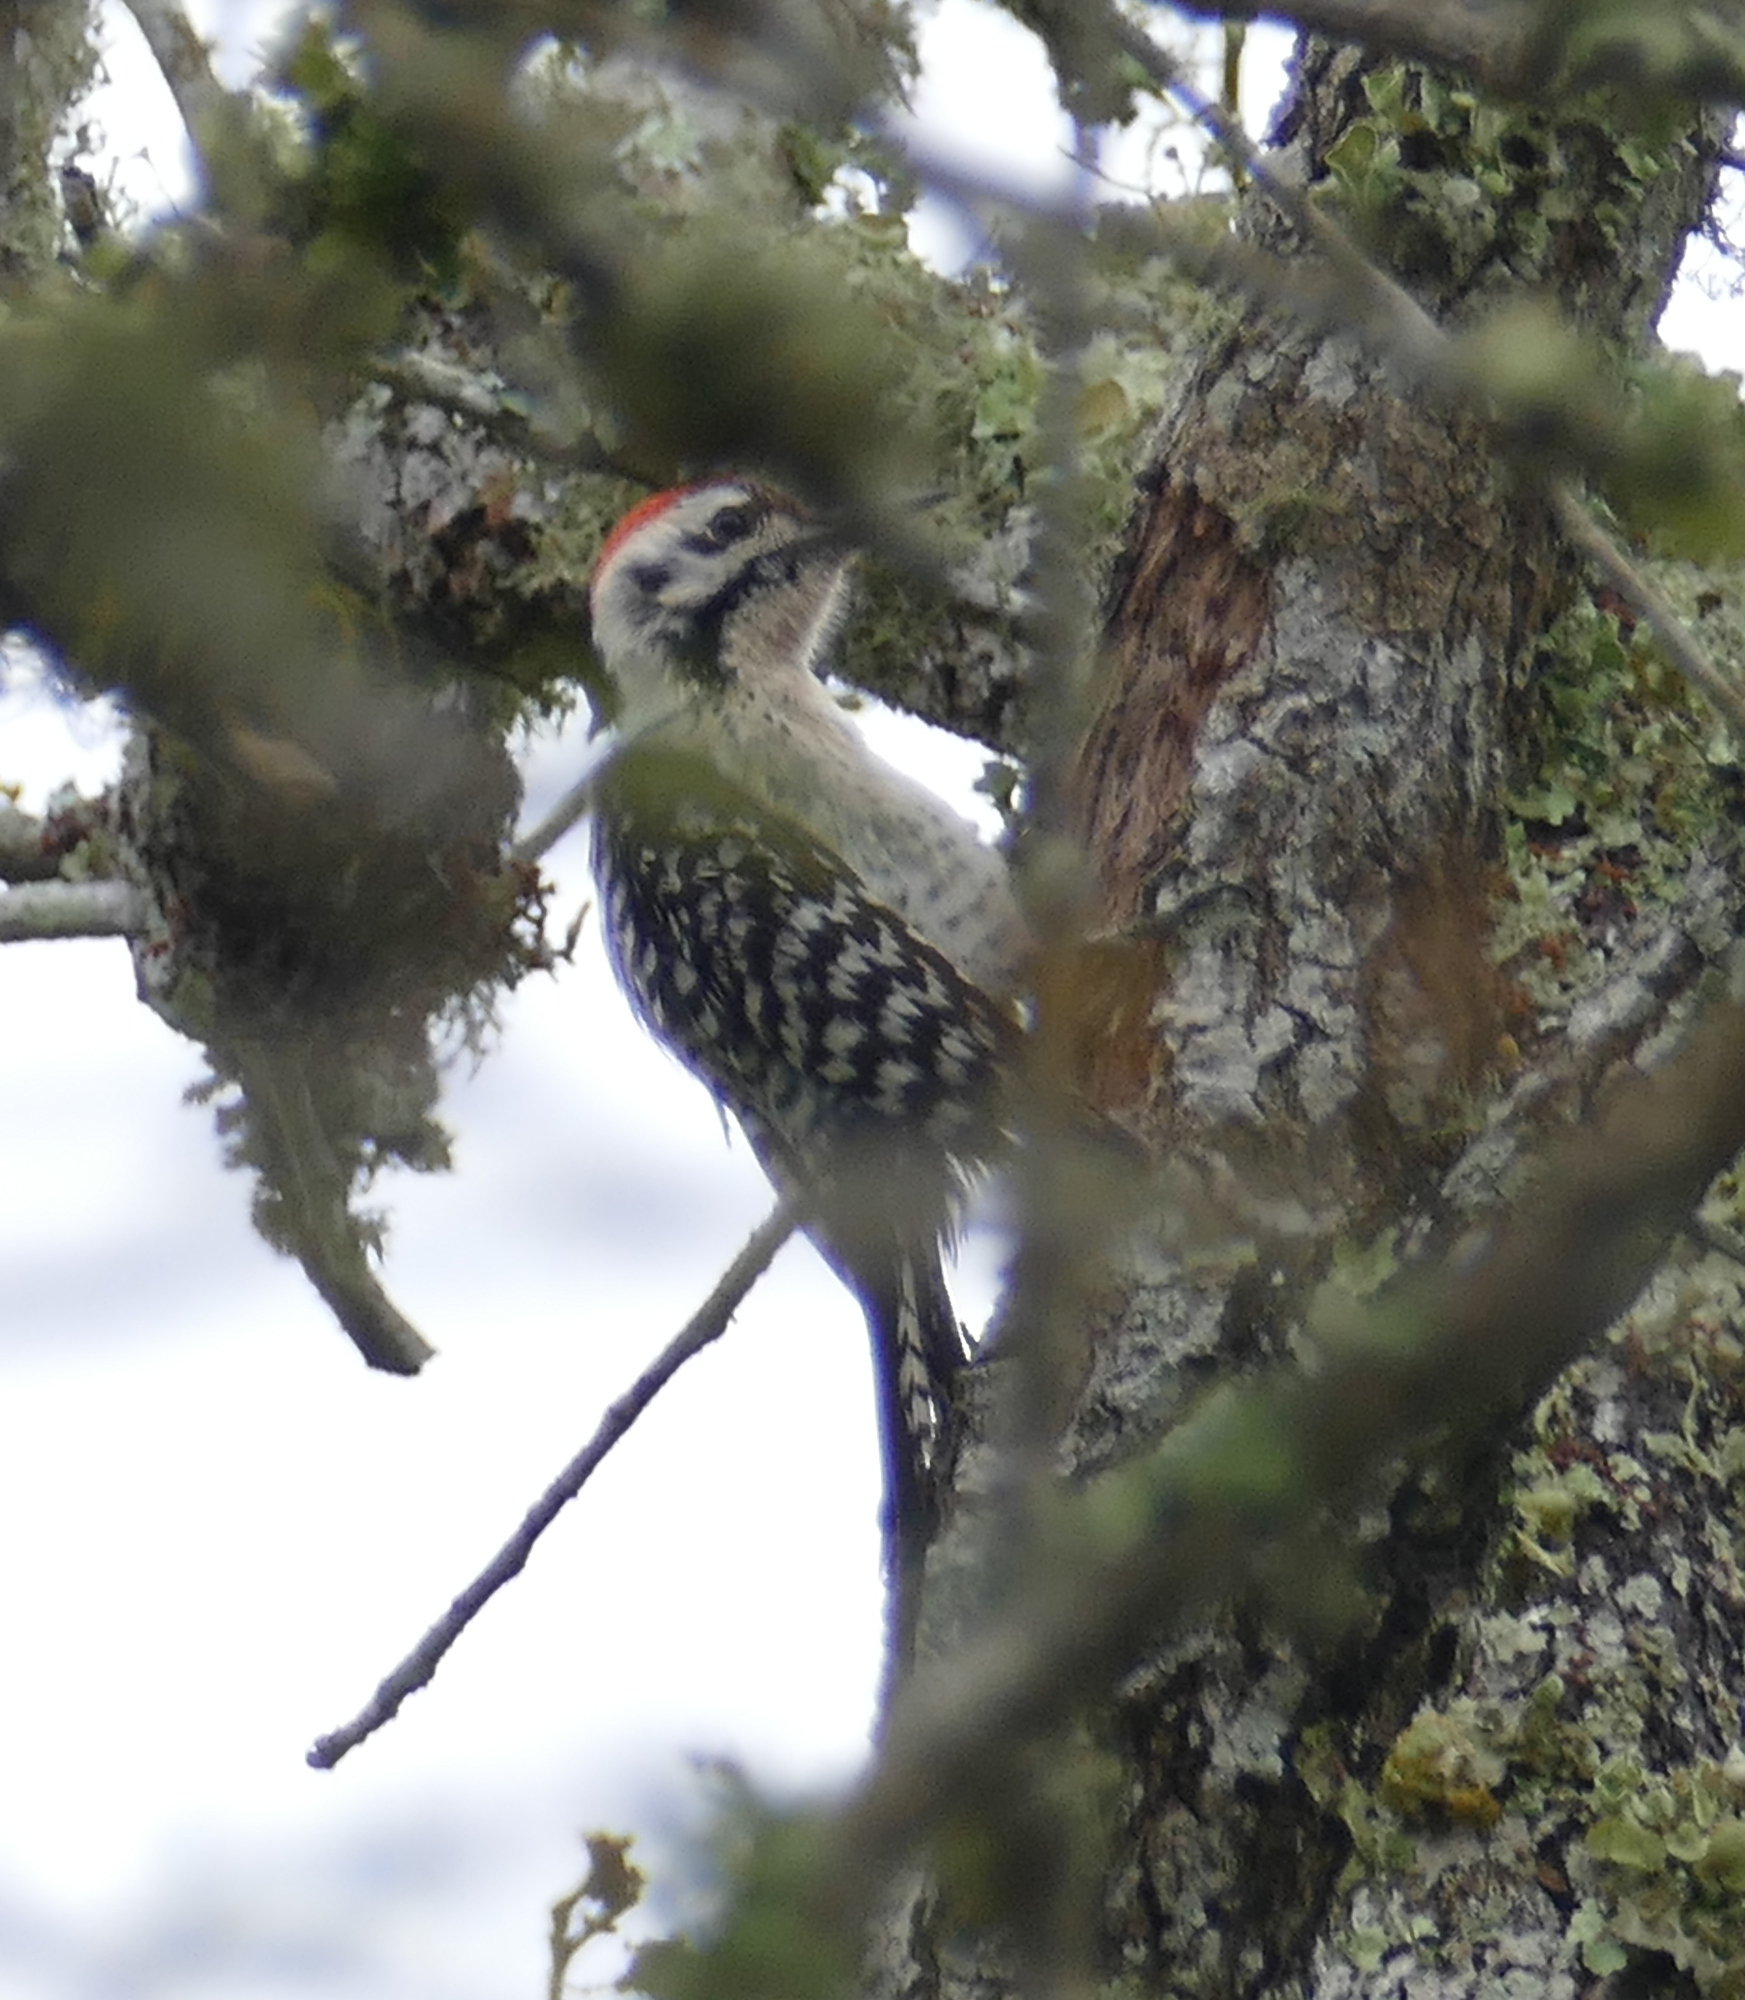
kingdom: Animalia
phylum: Chordata
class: Aves
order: Piciformes
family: Picidae
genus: Dryobates
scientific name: Dryobates scalaris
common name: Ladder-backed woodpecker
